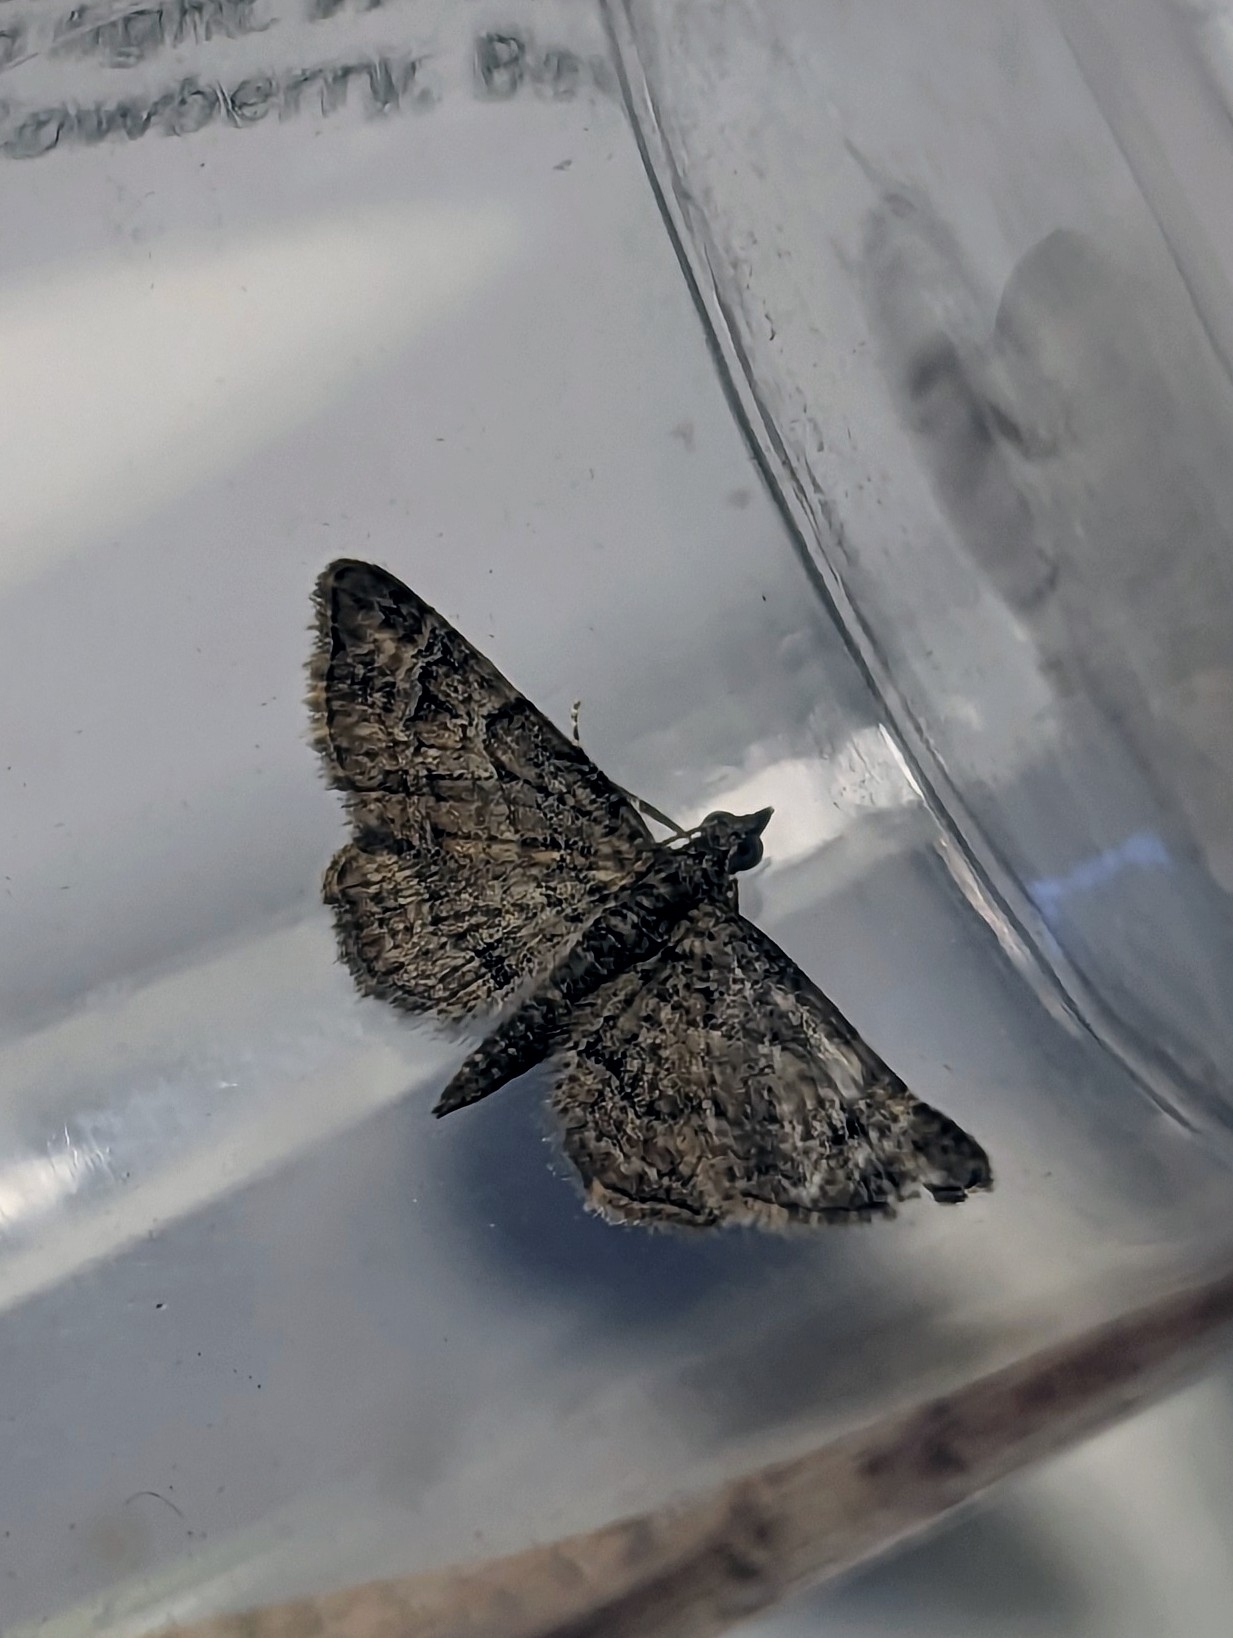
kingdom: Animalia
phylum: Arthropoda
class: Insecta
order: Lepidoptera
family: Geometridae
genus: Gymnoscelis
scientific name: Gymnoscelis rufifasciata
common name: Double-striped pug
